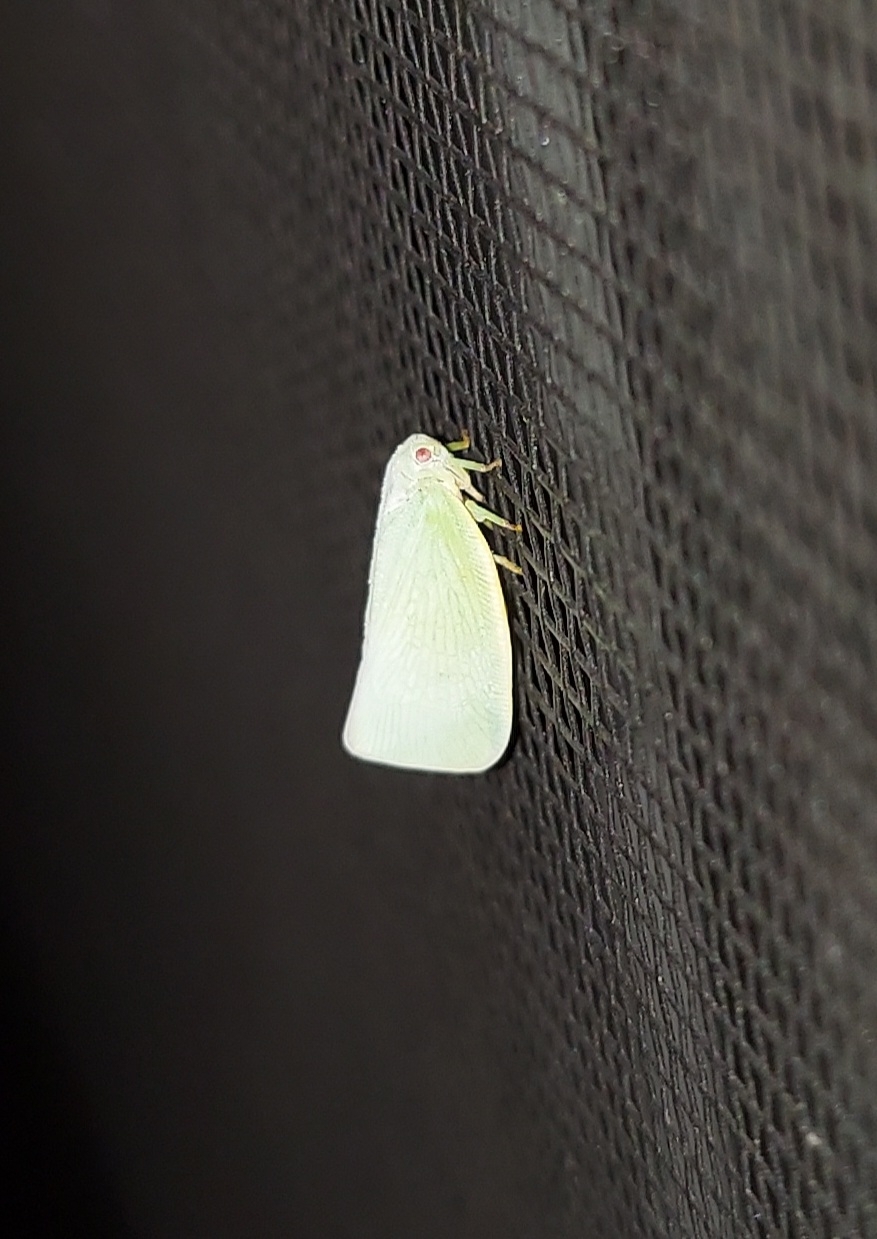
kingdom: Animalia
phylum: Arthropoda
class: Insecta
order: Hemiptera
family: Flatidae
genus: Flatormenis
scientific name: Flatormenis proxima
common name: Northern flatid planthopper
